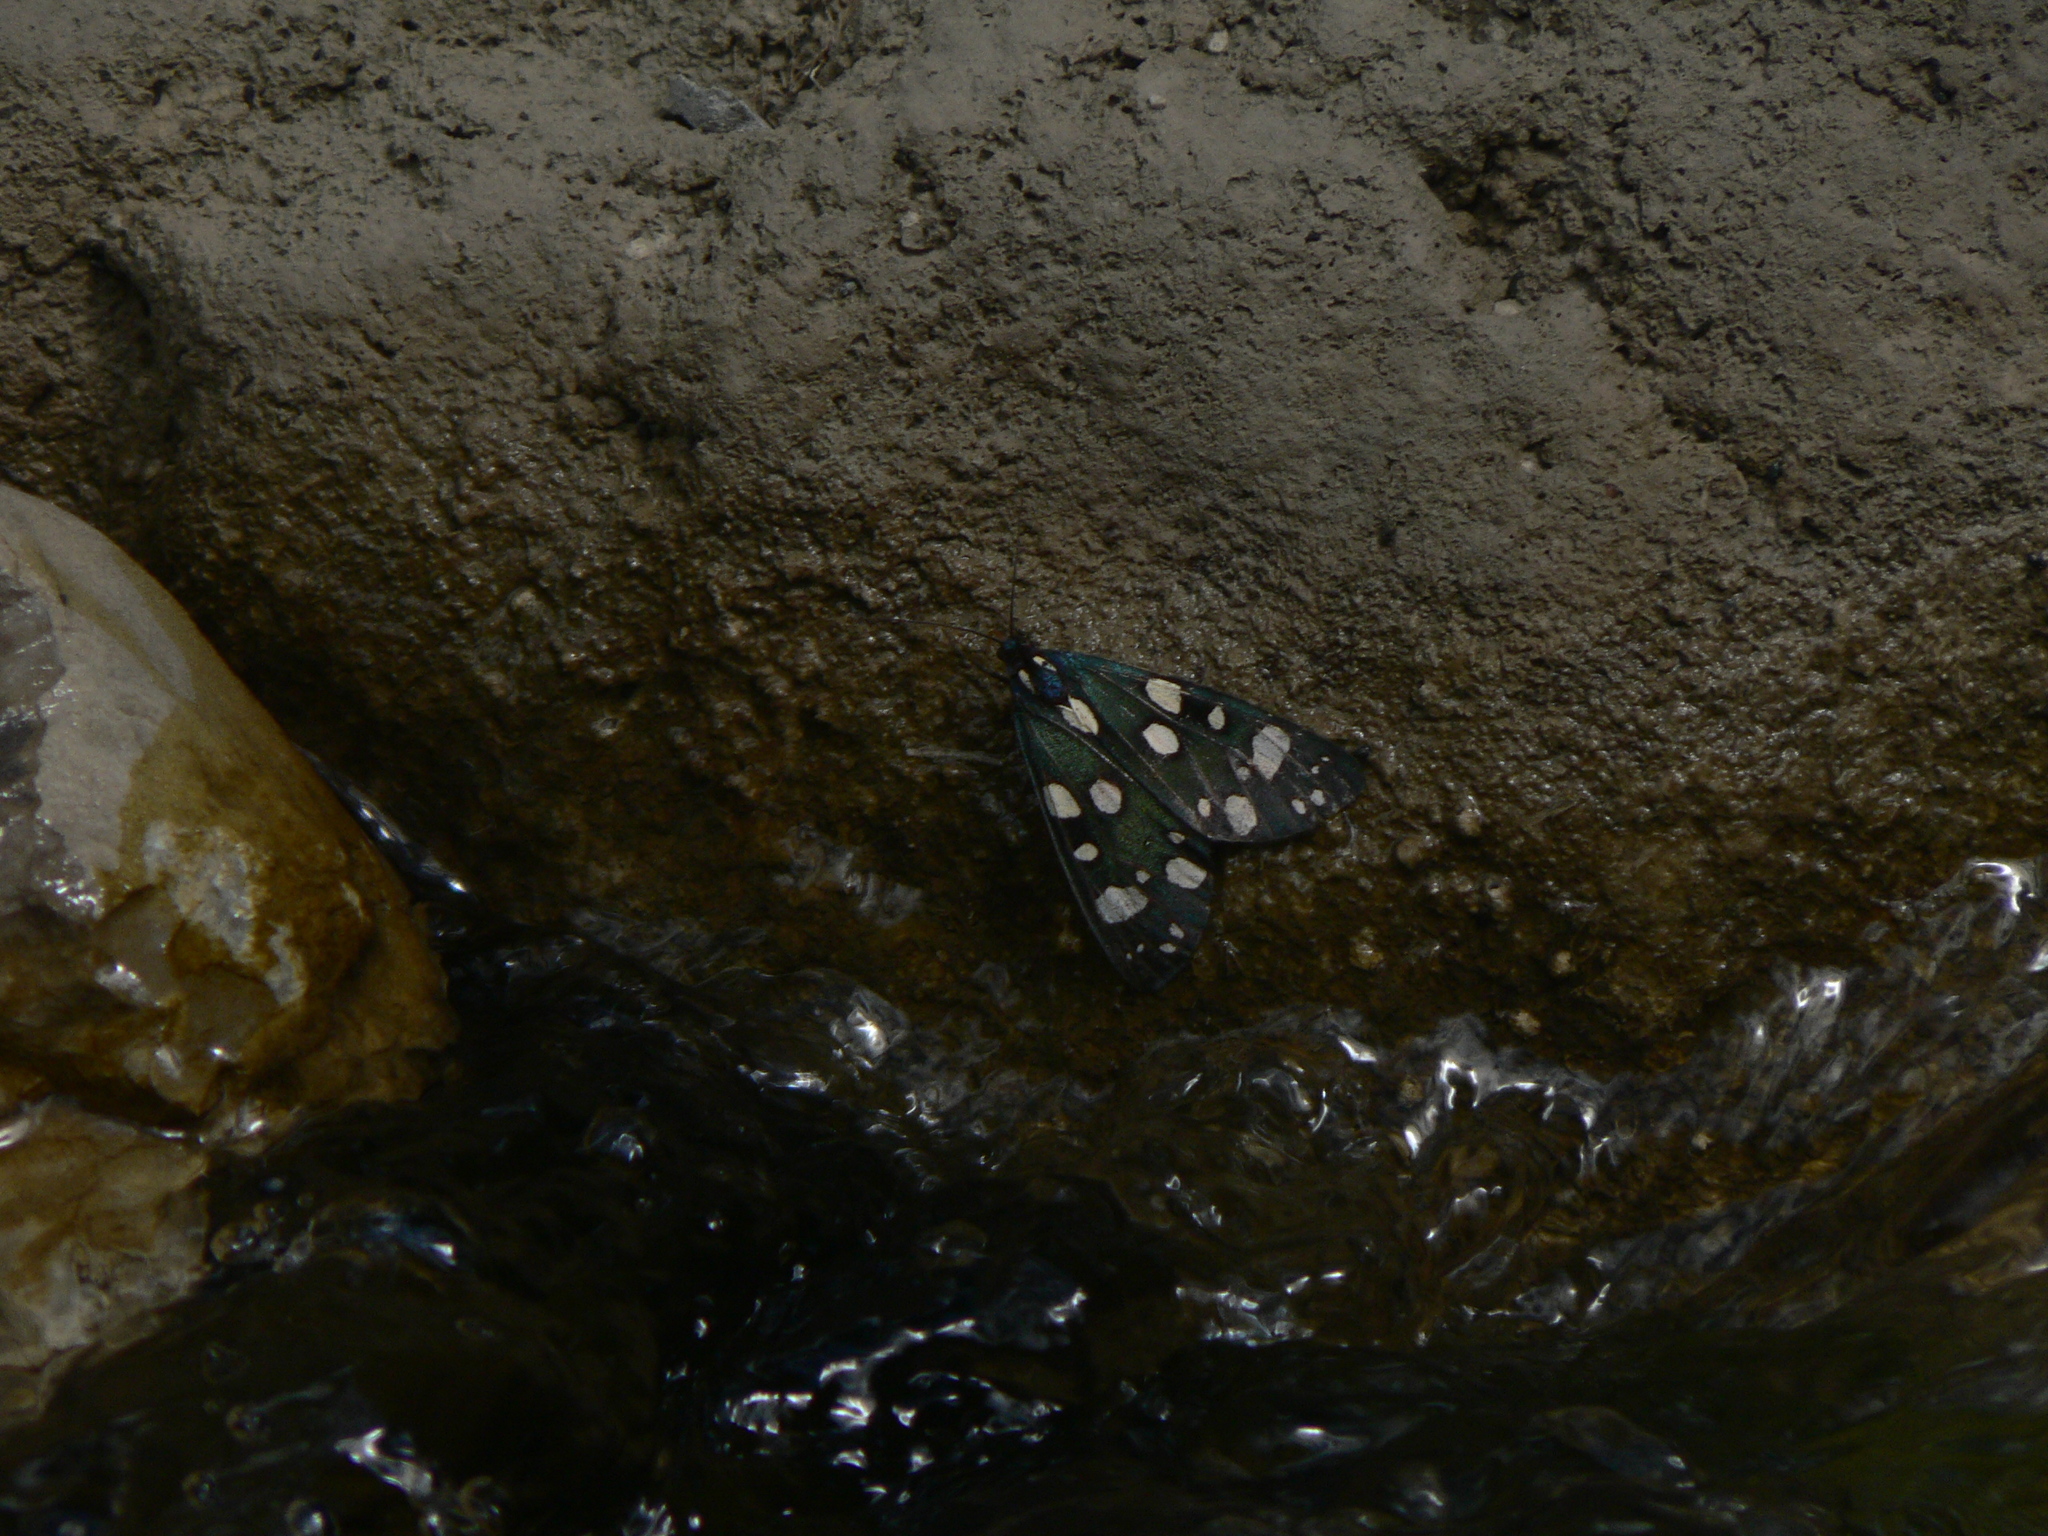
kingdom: Animalia
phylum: Arthropoda
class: Insecta
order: Lepidoptera
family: Erebidae
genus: Callimorpha
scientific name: Callimorpha dominula
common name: Scarlet tiger
